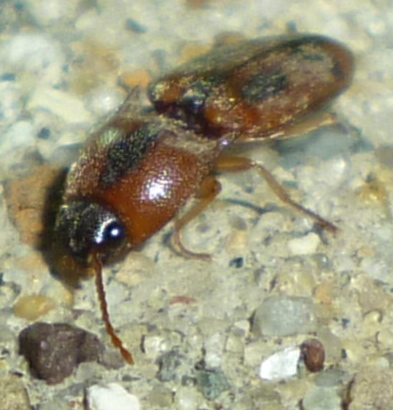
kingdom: Animalia
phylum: Arthropoda
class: Insecta
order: Coleoptera
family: Elateridae
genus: Aeolus
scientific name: Aeolus mellillus
